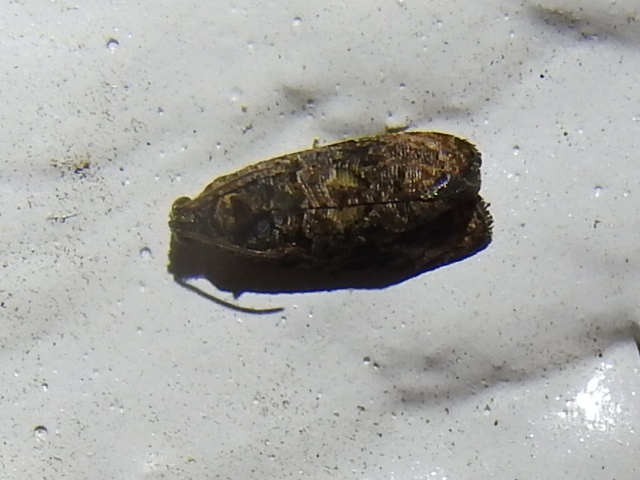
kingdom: Animalia
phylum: Arthropoda
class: Insecta
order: Lepidoptera
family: Tortricidae
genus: Endothenia
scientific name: Endothenia hebesana
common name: Verbena bud moth
